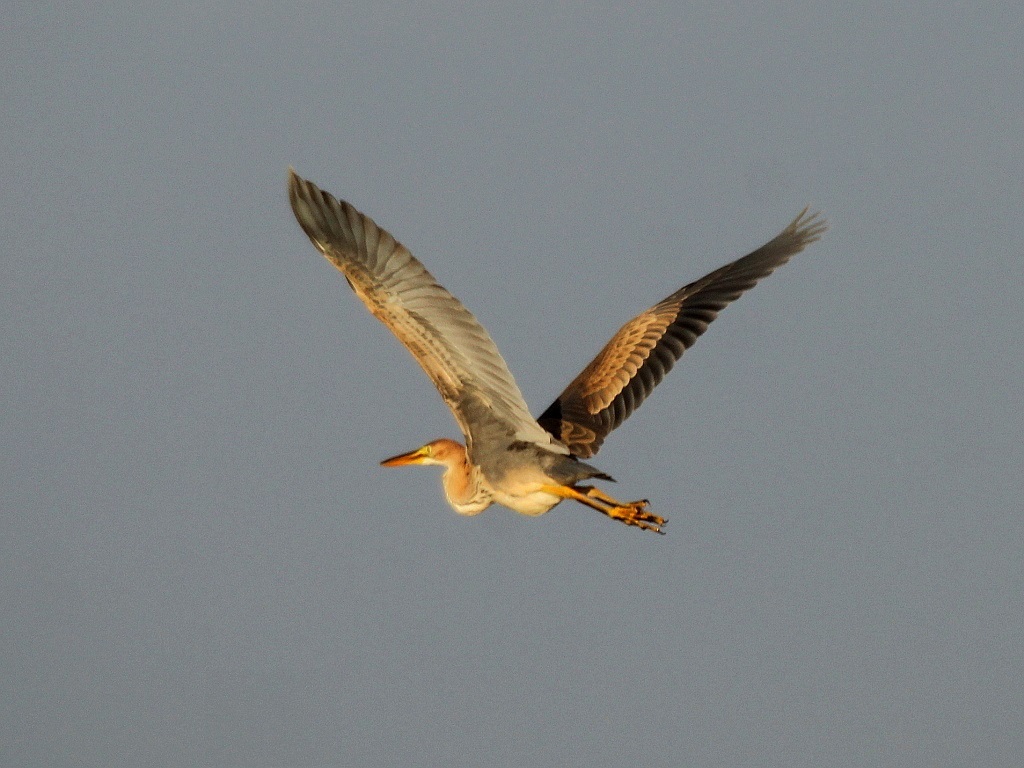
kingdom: Animalia
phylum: Chordata
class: Aves
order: Pelecaniformes
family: Ardeidae
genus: Ardea
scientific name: Ardea purpurea
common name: Purple heron
